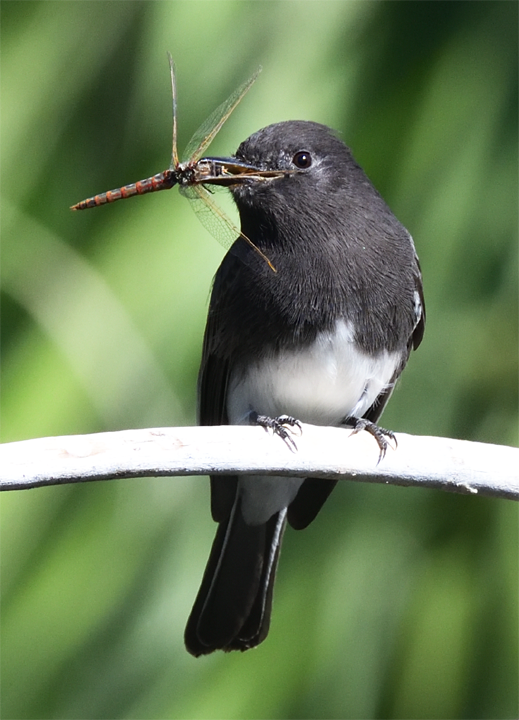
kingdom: Animalia
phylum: Chordata
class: Aves
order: Passeriformes
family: Tyrannidae
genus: Sayornis
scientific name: Sayornis nigricans
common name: Black phoebe
